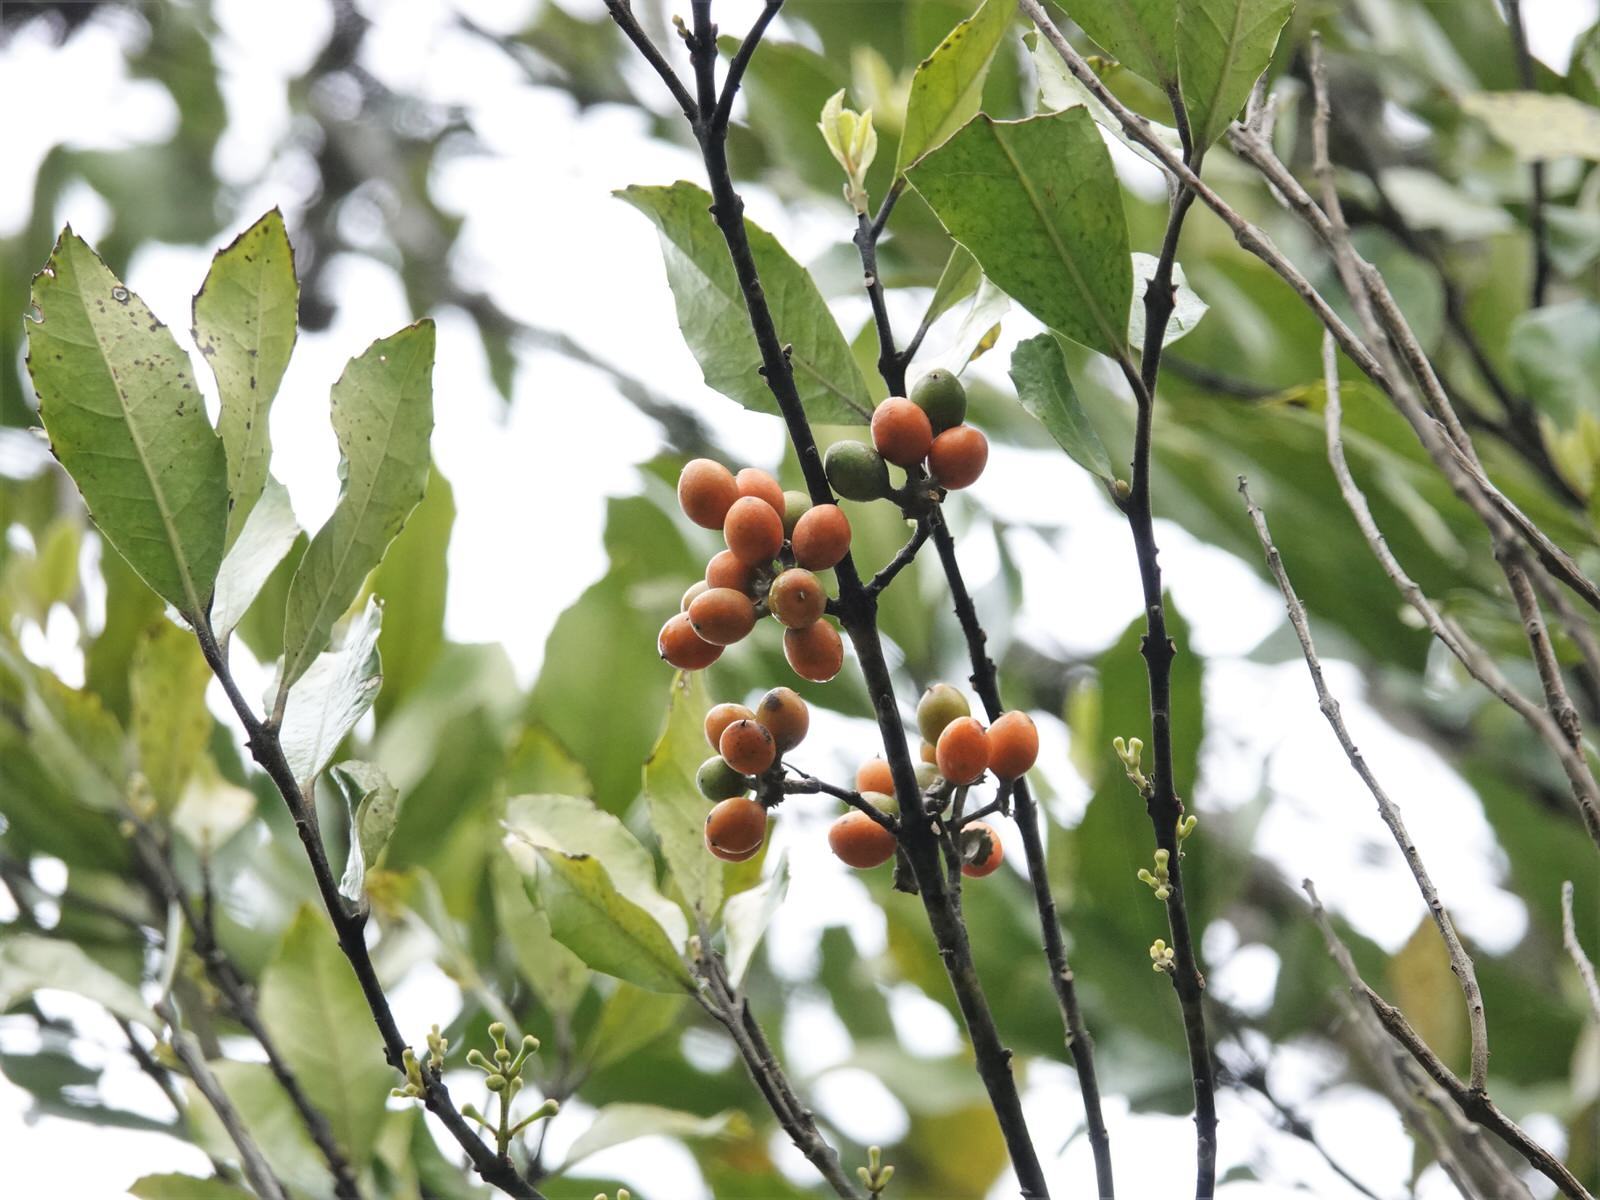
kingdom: Plantae
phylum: Tracheophyta
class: Magnoliopsida
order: Laurales
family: Monimiaceae
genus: Hedycarya
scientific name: Hedycarya arborea
